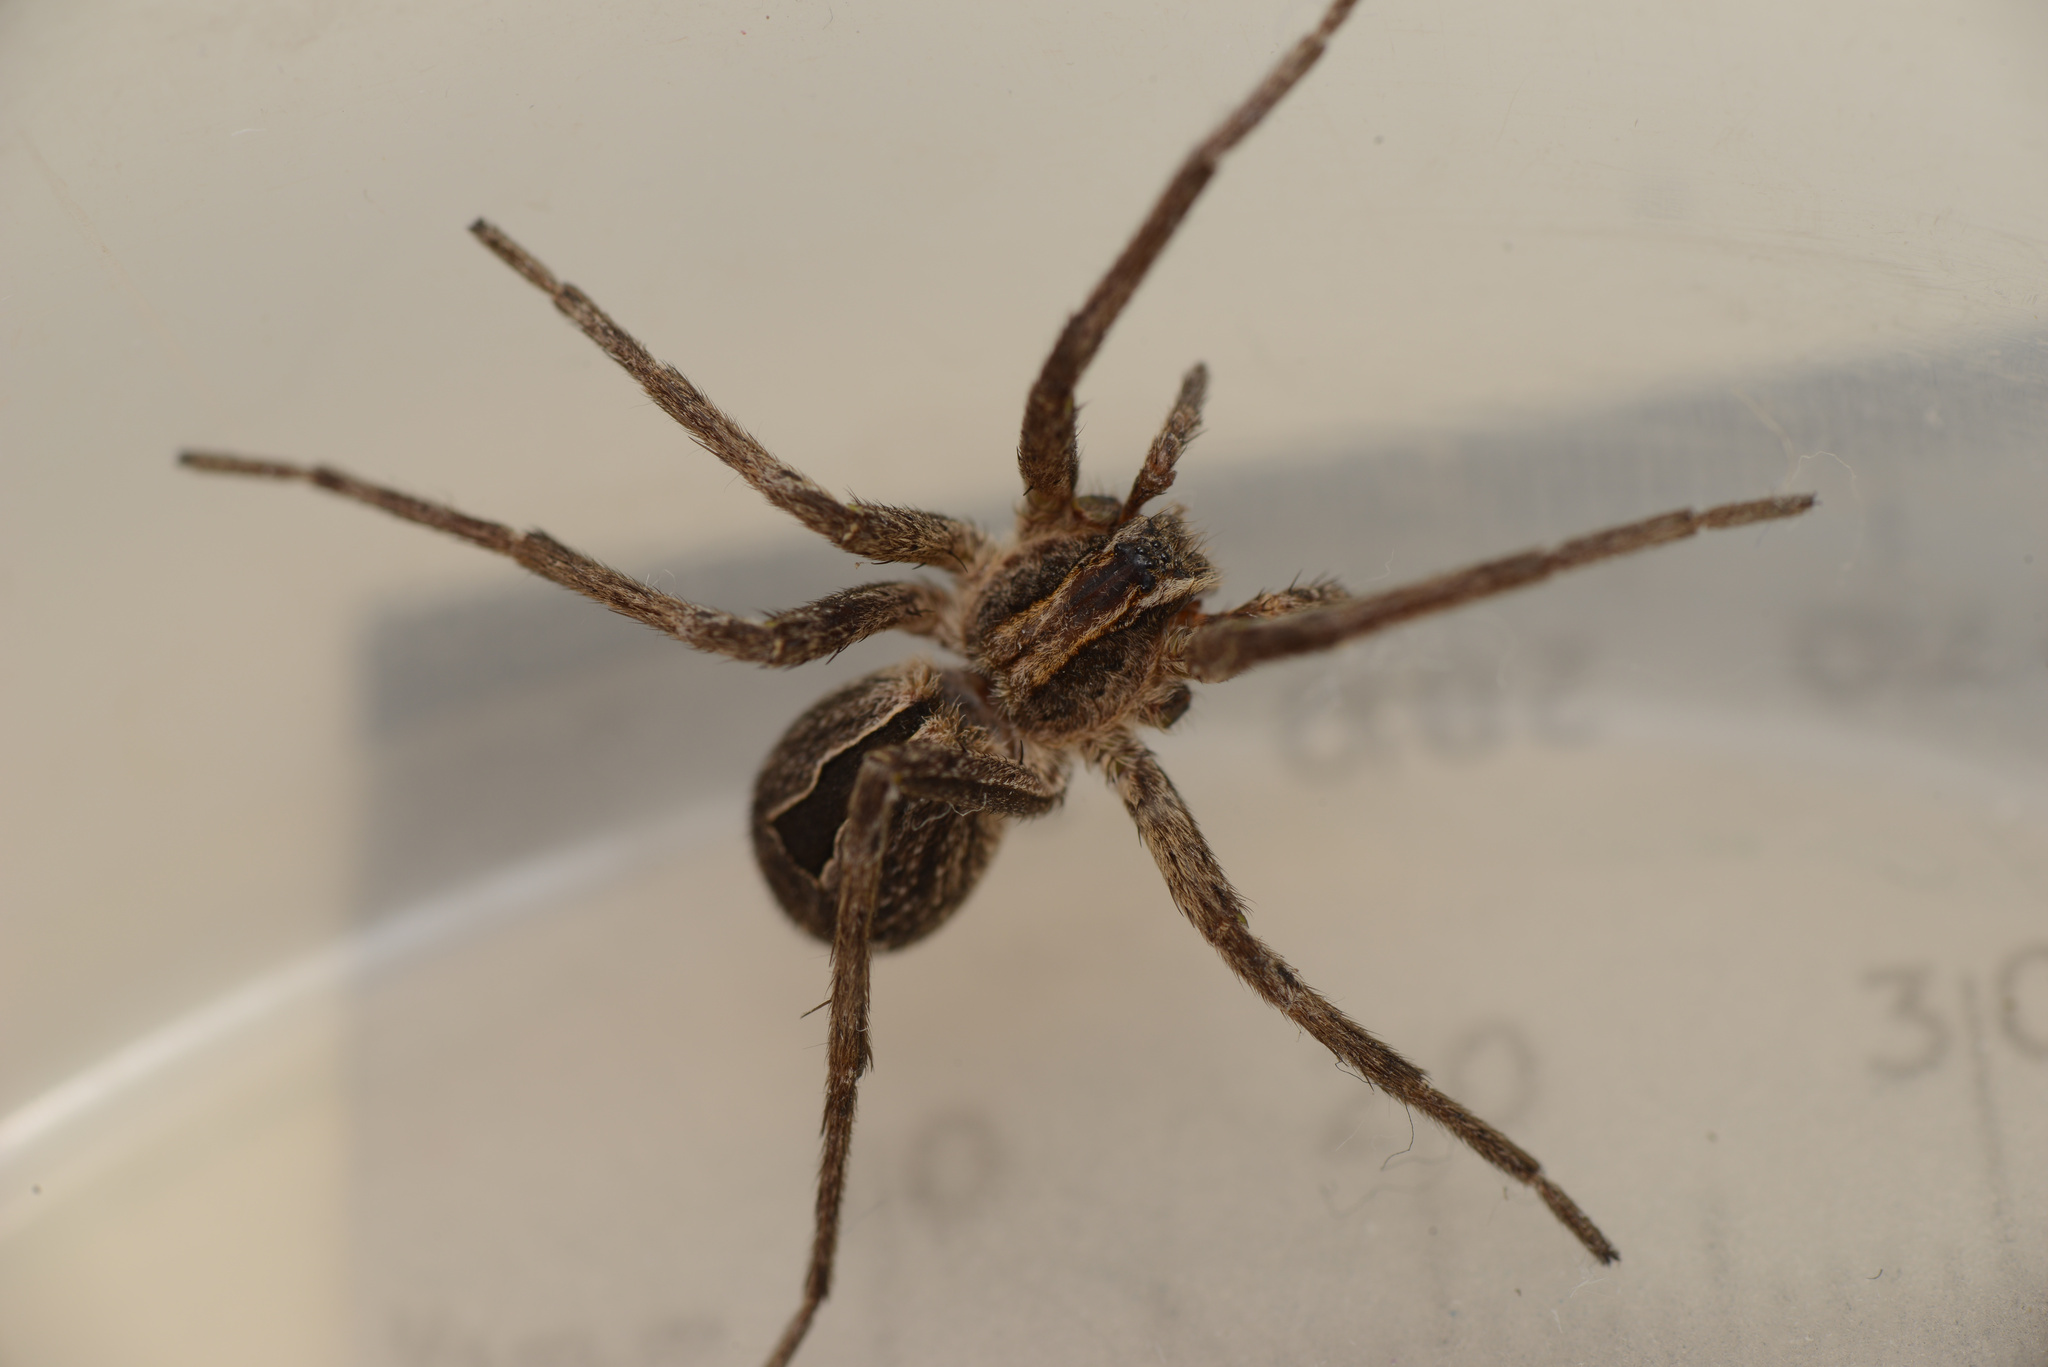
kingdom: Animalia
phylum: Arthropoda
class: Arachnida
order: Araneae
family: Miturgidae
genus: Argoctenus
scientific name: Argoctenus
